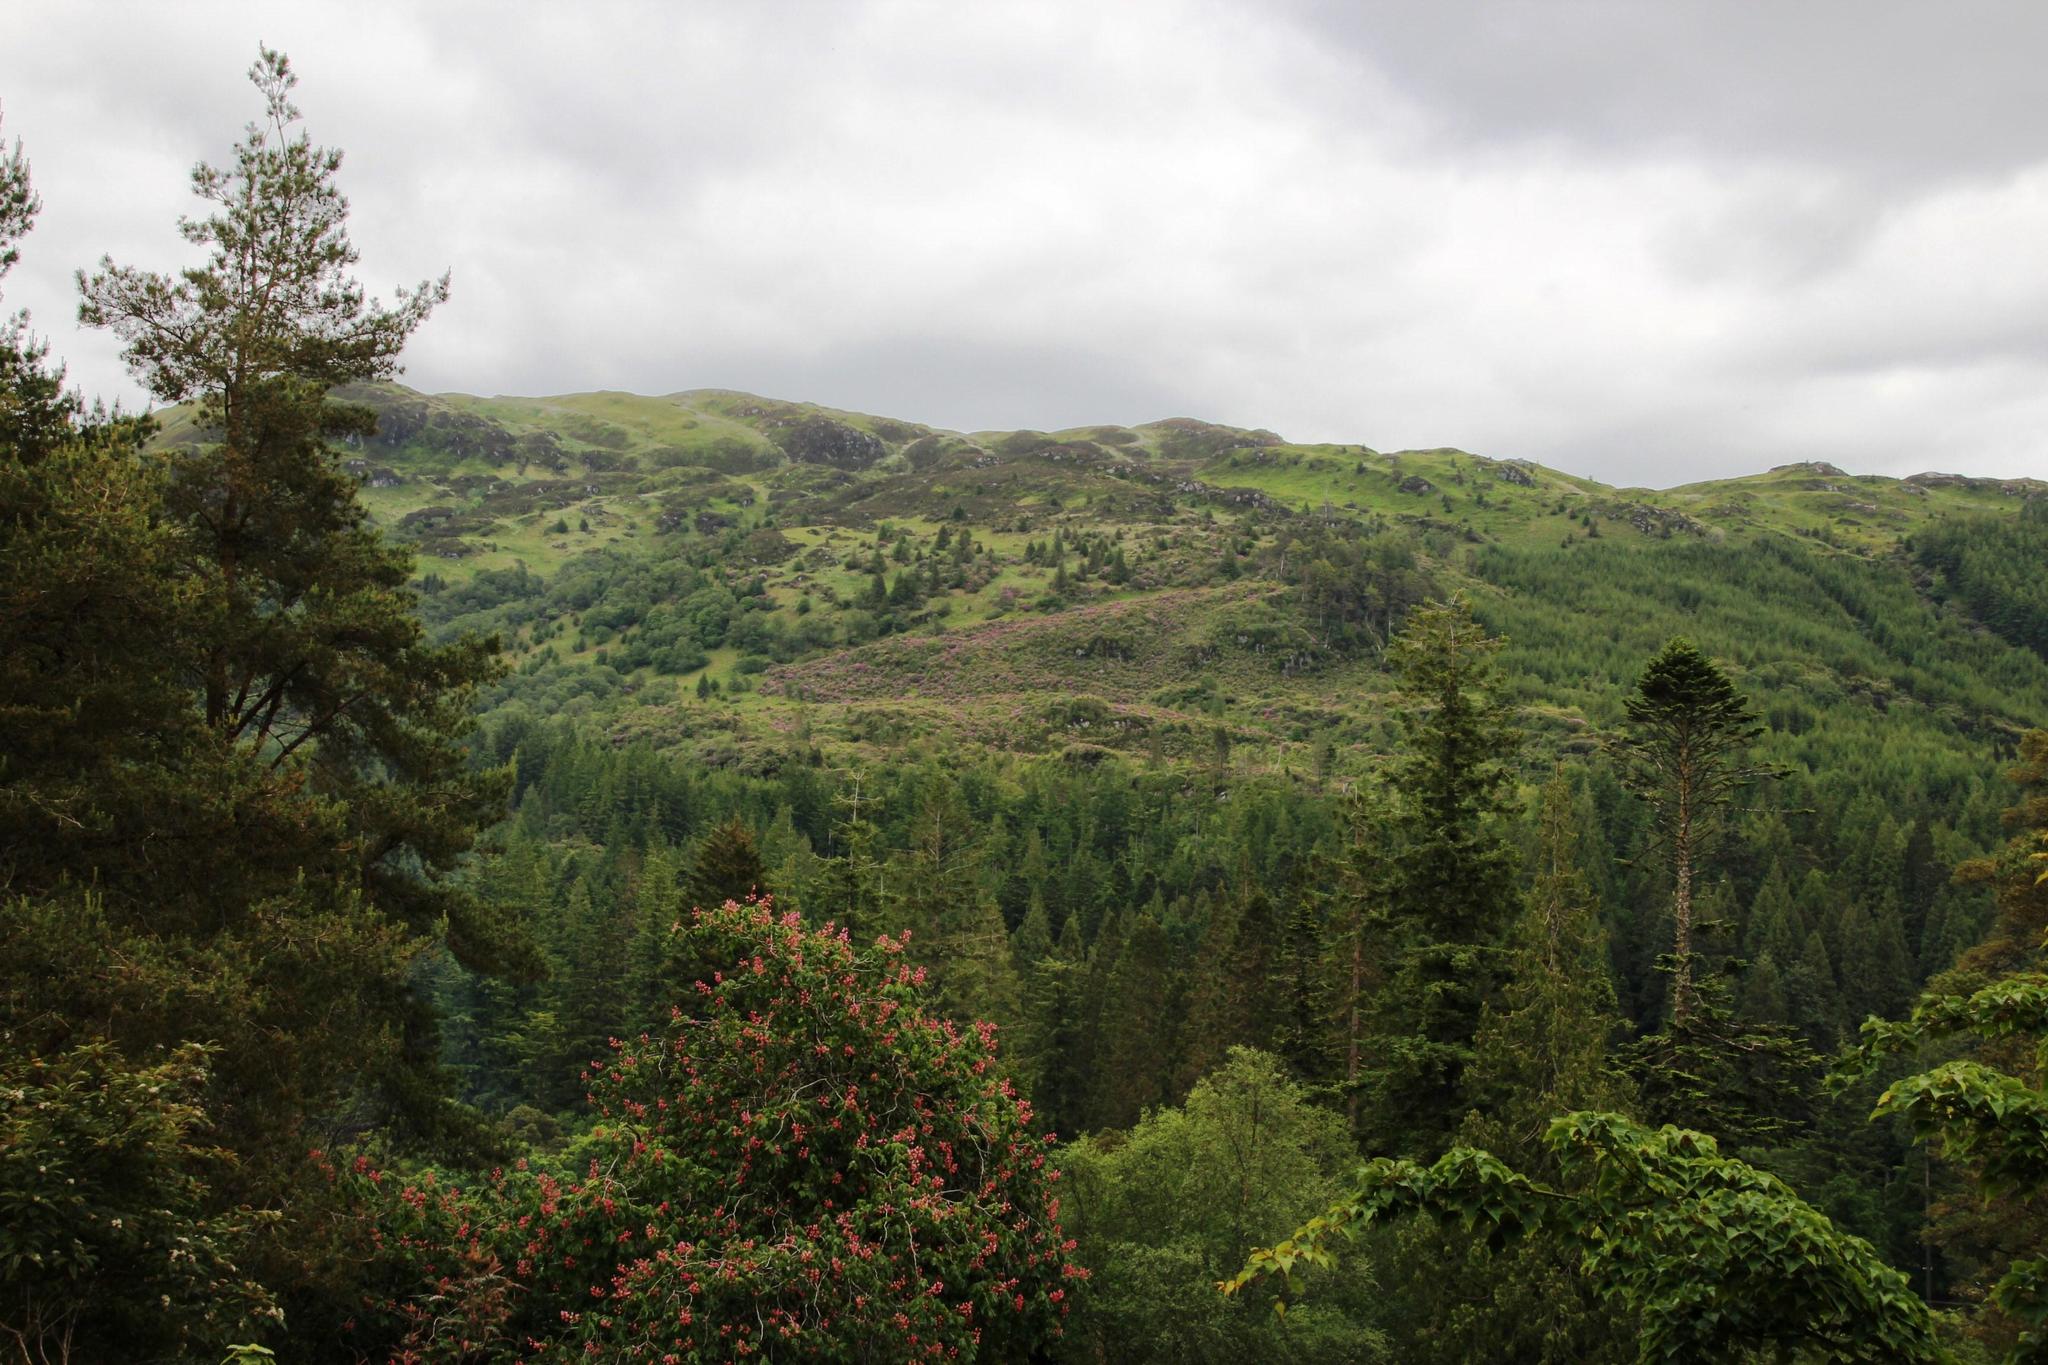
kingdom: Plantae
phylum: Tracheophyta
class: Magnoliopsida
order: Ericales
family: Ericaceae
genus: Rhododendron
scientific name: Rhododendron ponticum
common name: Rhododendron
